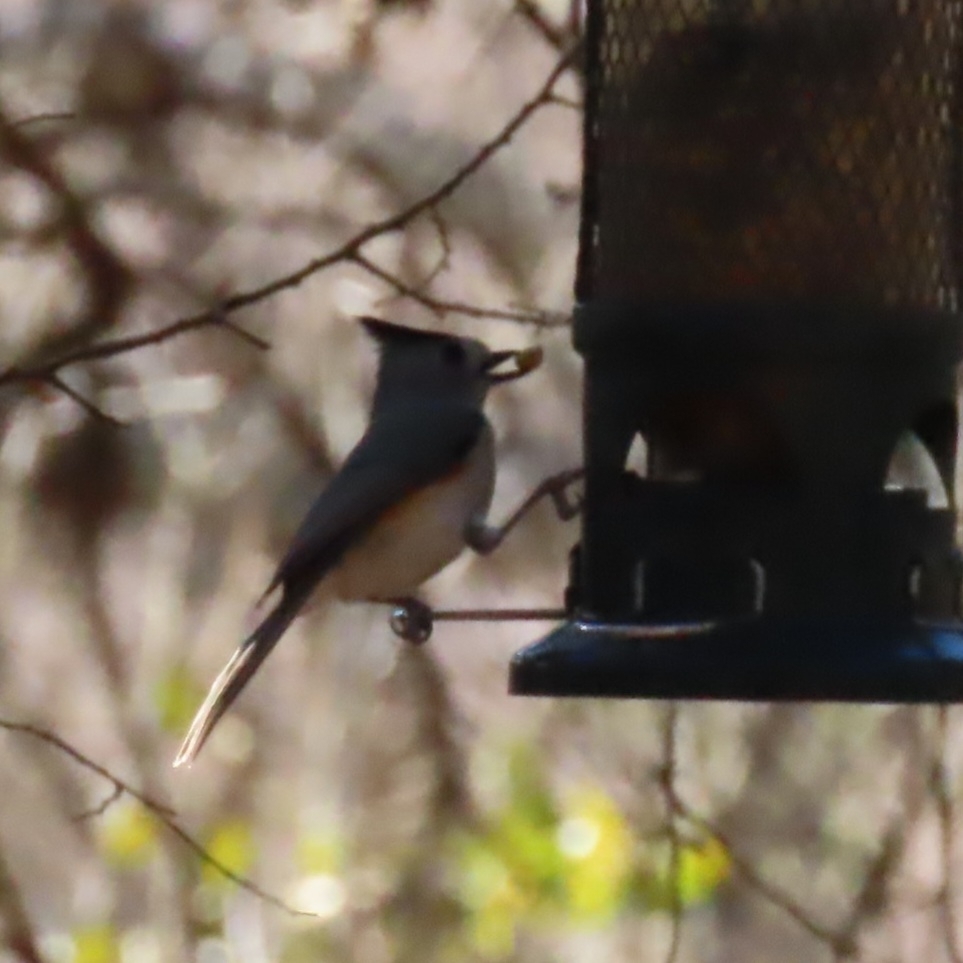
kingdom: Animalia
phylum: Chordata
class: Aves
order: Passeriformes
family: Paridae
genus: Baeolophus
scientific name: Baeolophus atricristatus
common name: Black-crested titmouse
